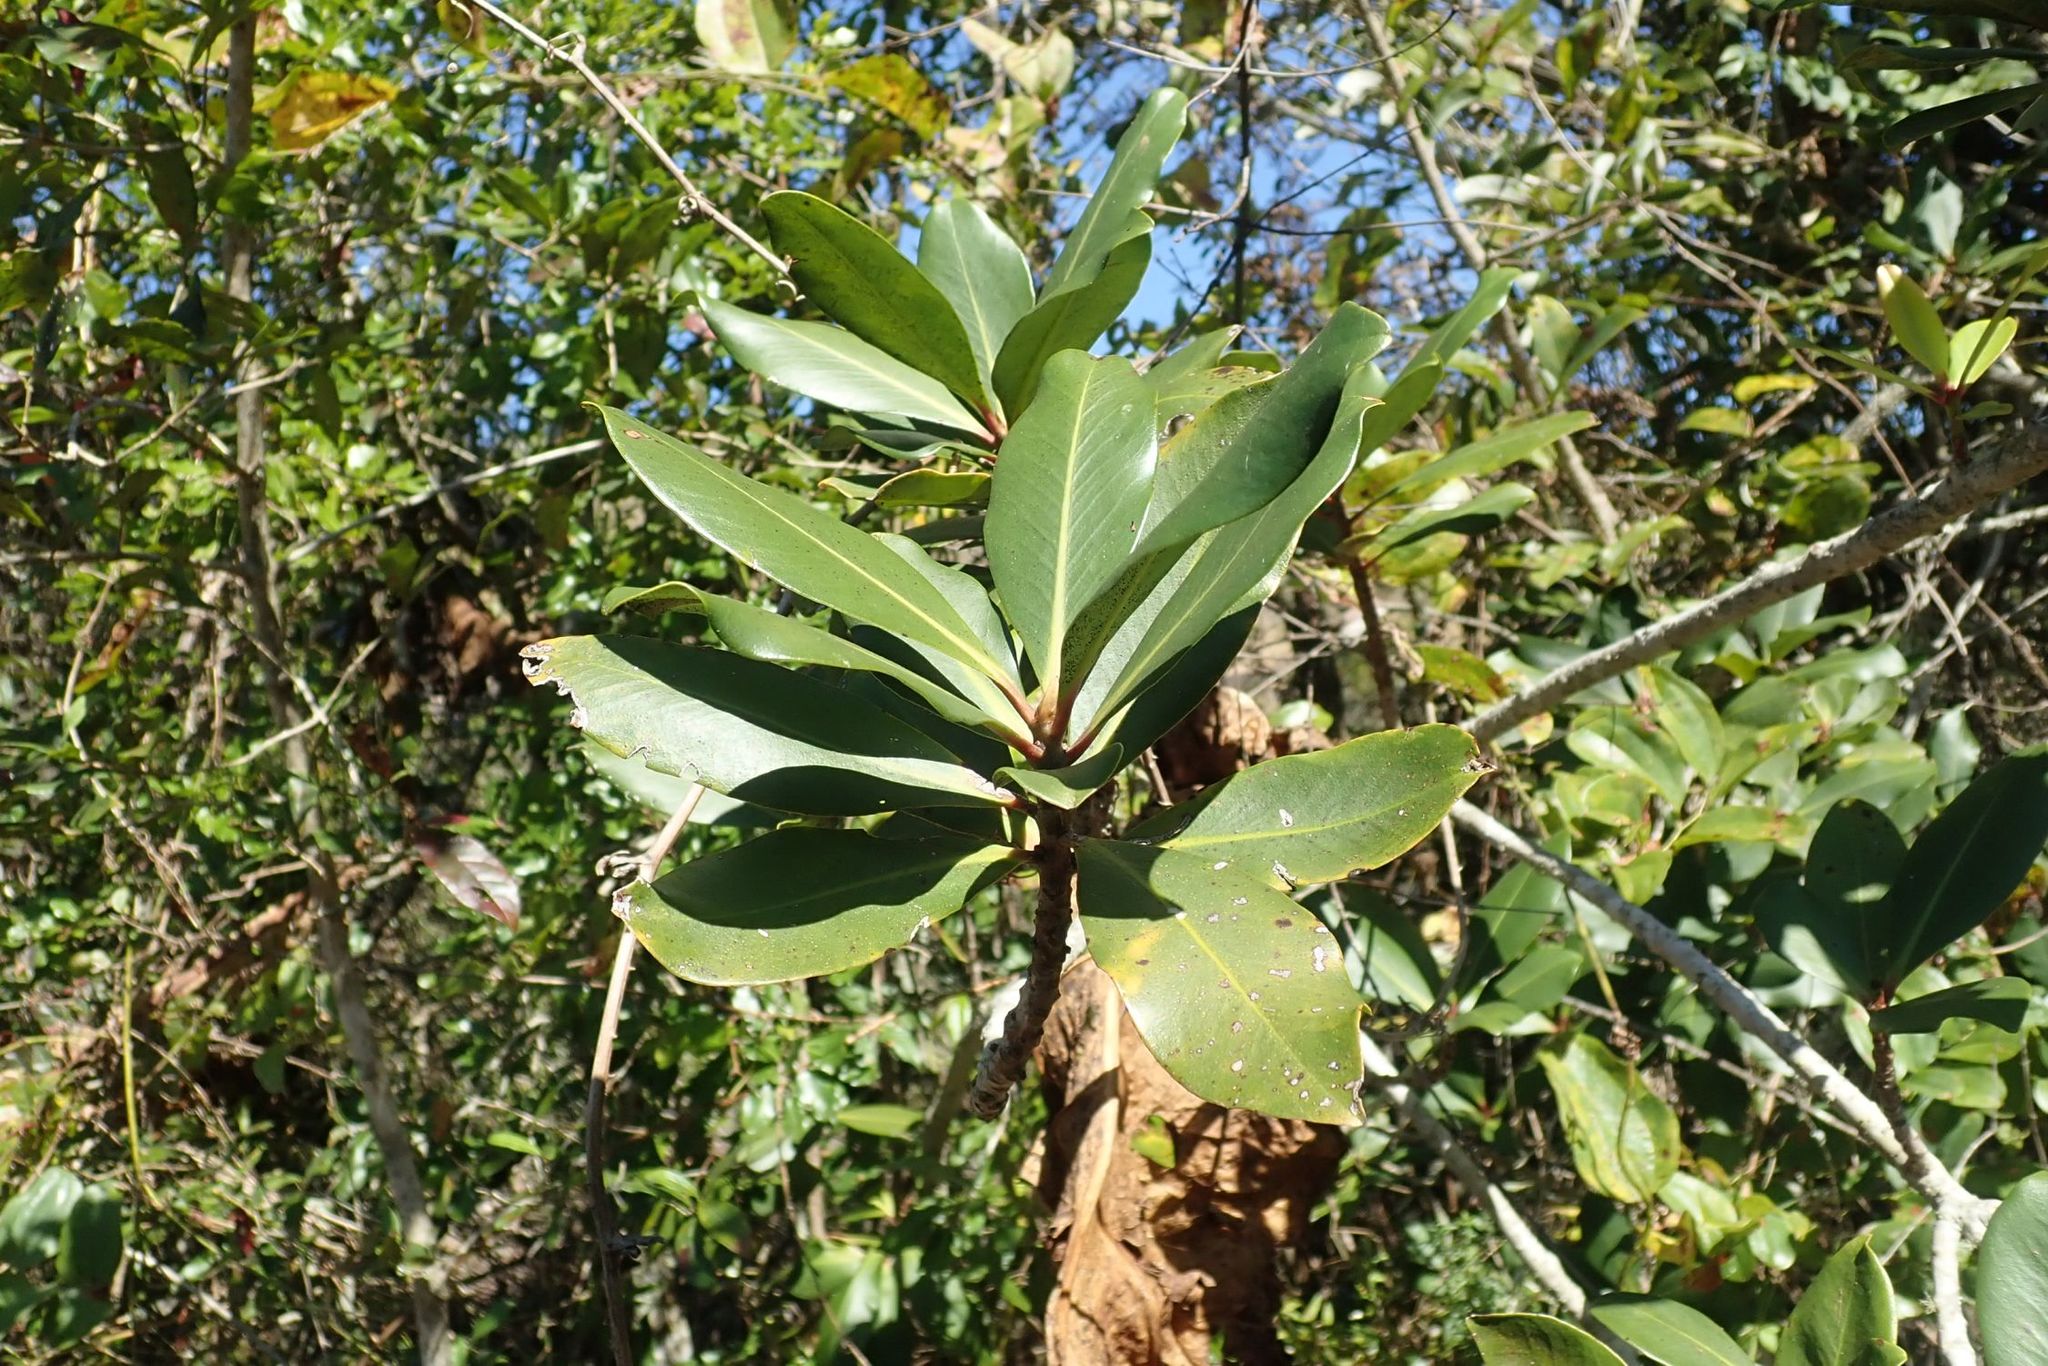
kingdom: Plantae
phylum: Tracheophyta
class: Magnoliopsida
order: Ericales
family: Primulaceae
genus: Myrsine
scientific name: Myrsine melanophloeos
